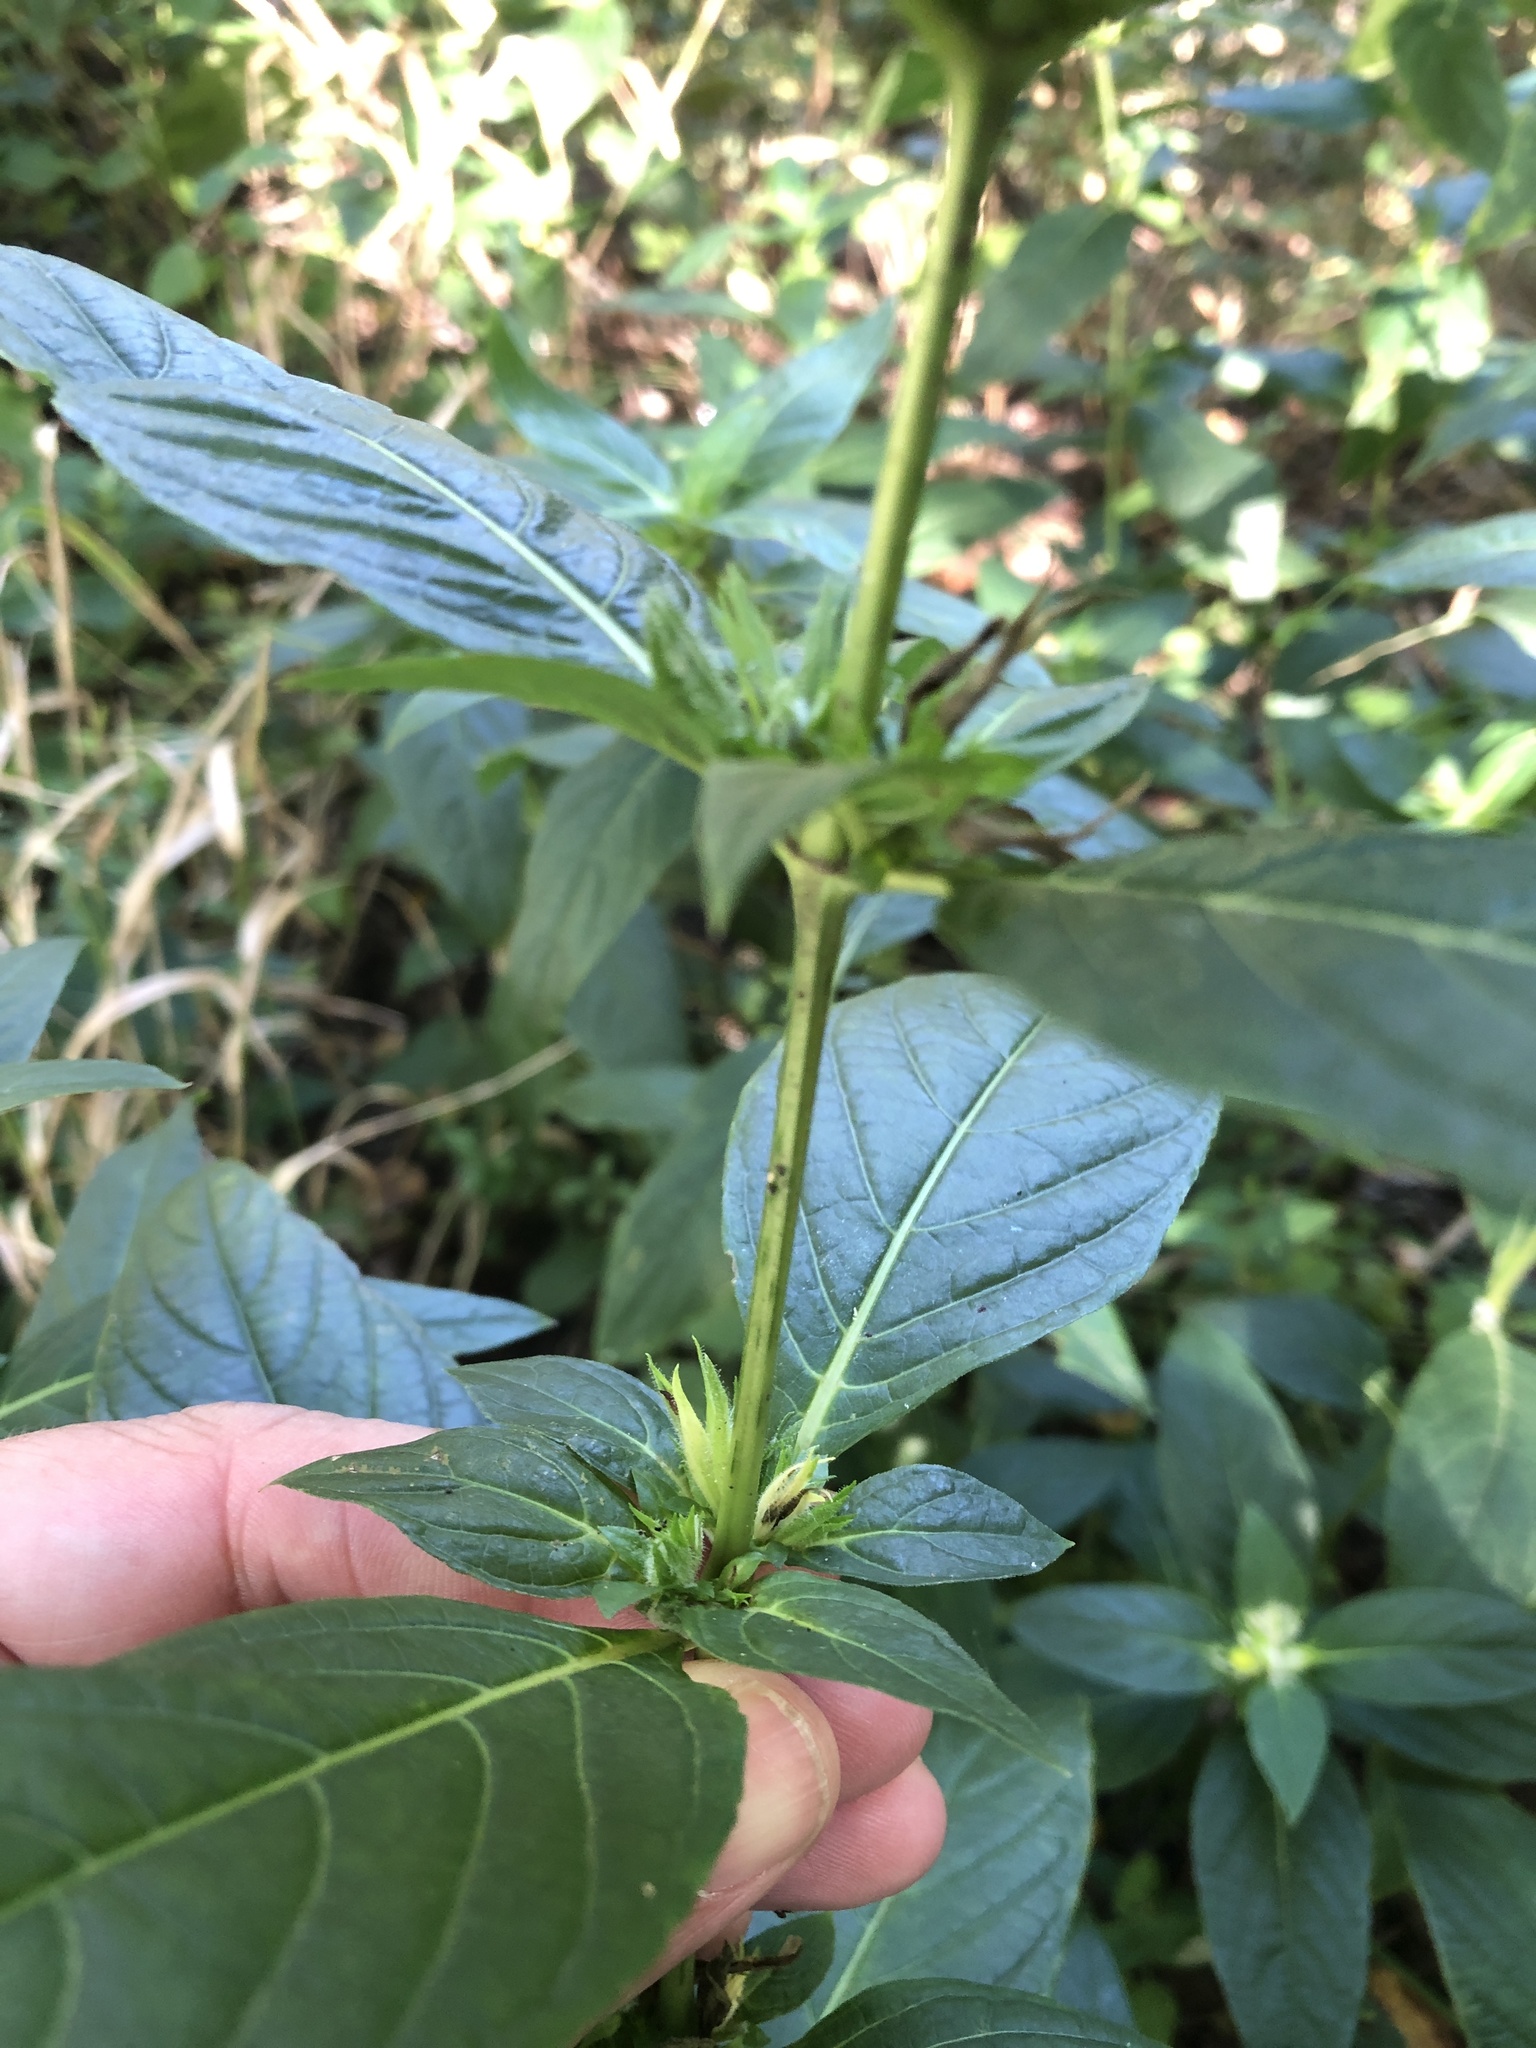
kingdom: Plantae
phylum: Tracheophyta
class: Magnoliopsida
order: Lamiales
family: Acanthaceae
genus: Ruellia
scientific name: Ruellia strepens
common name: Limestone wild petunia
